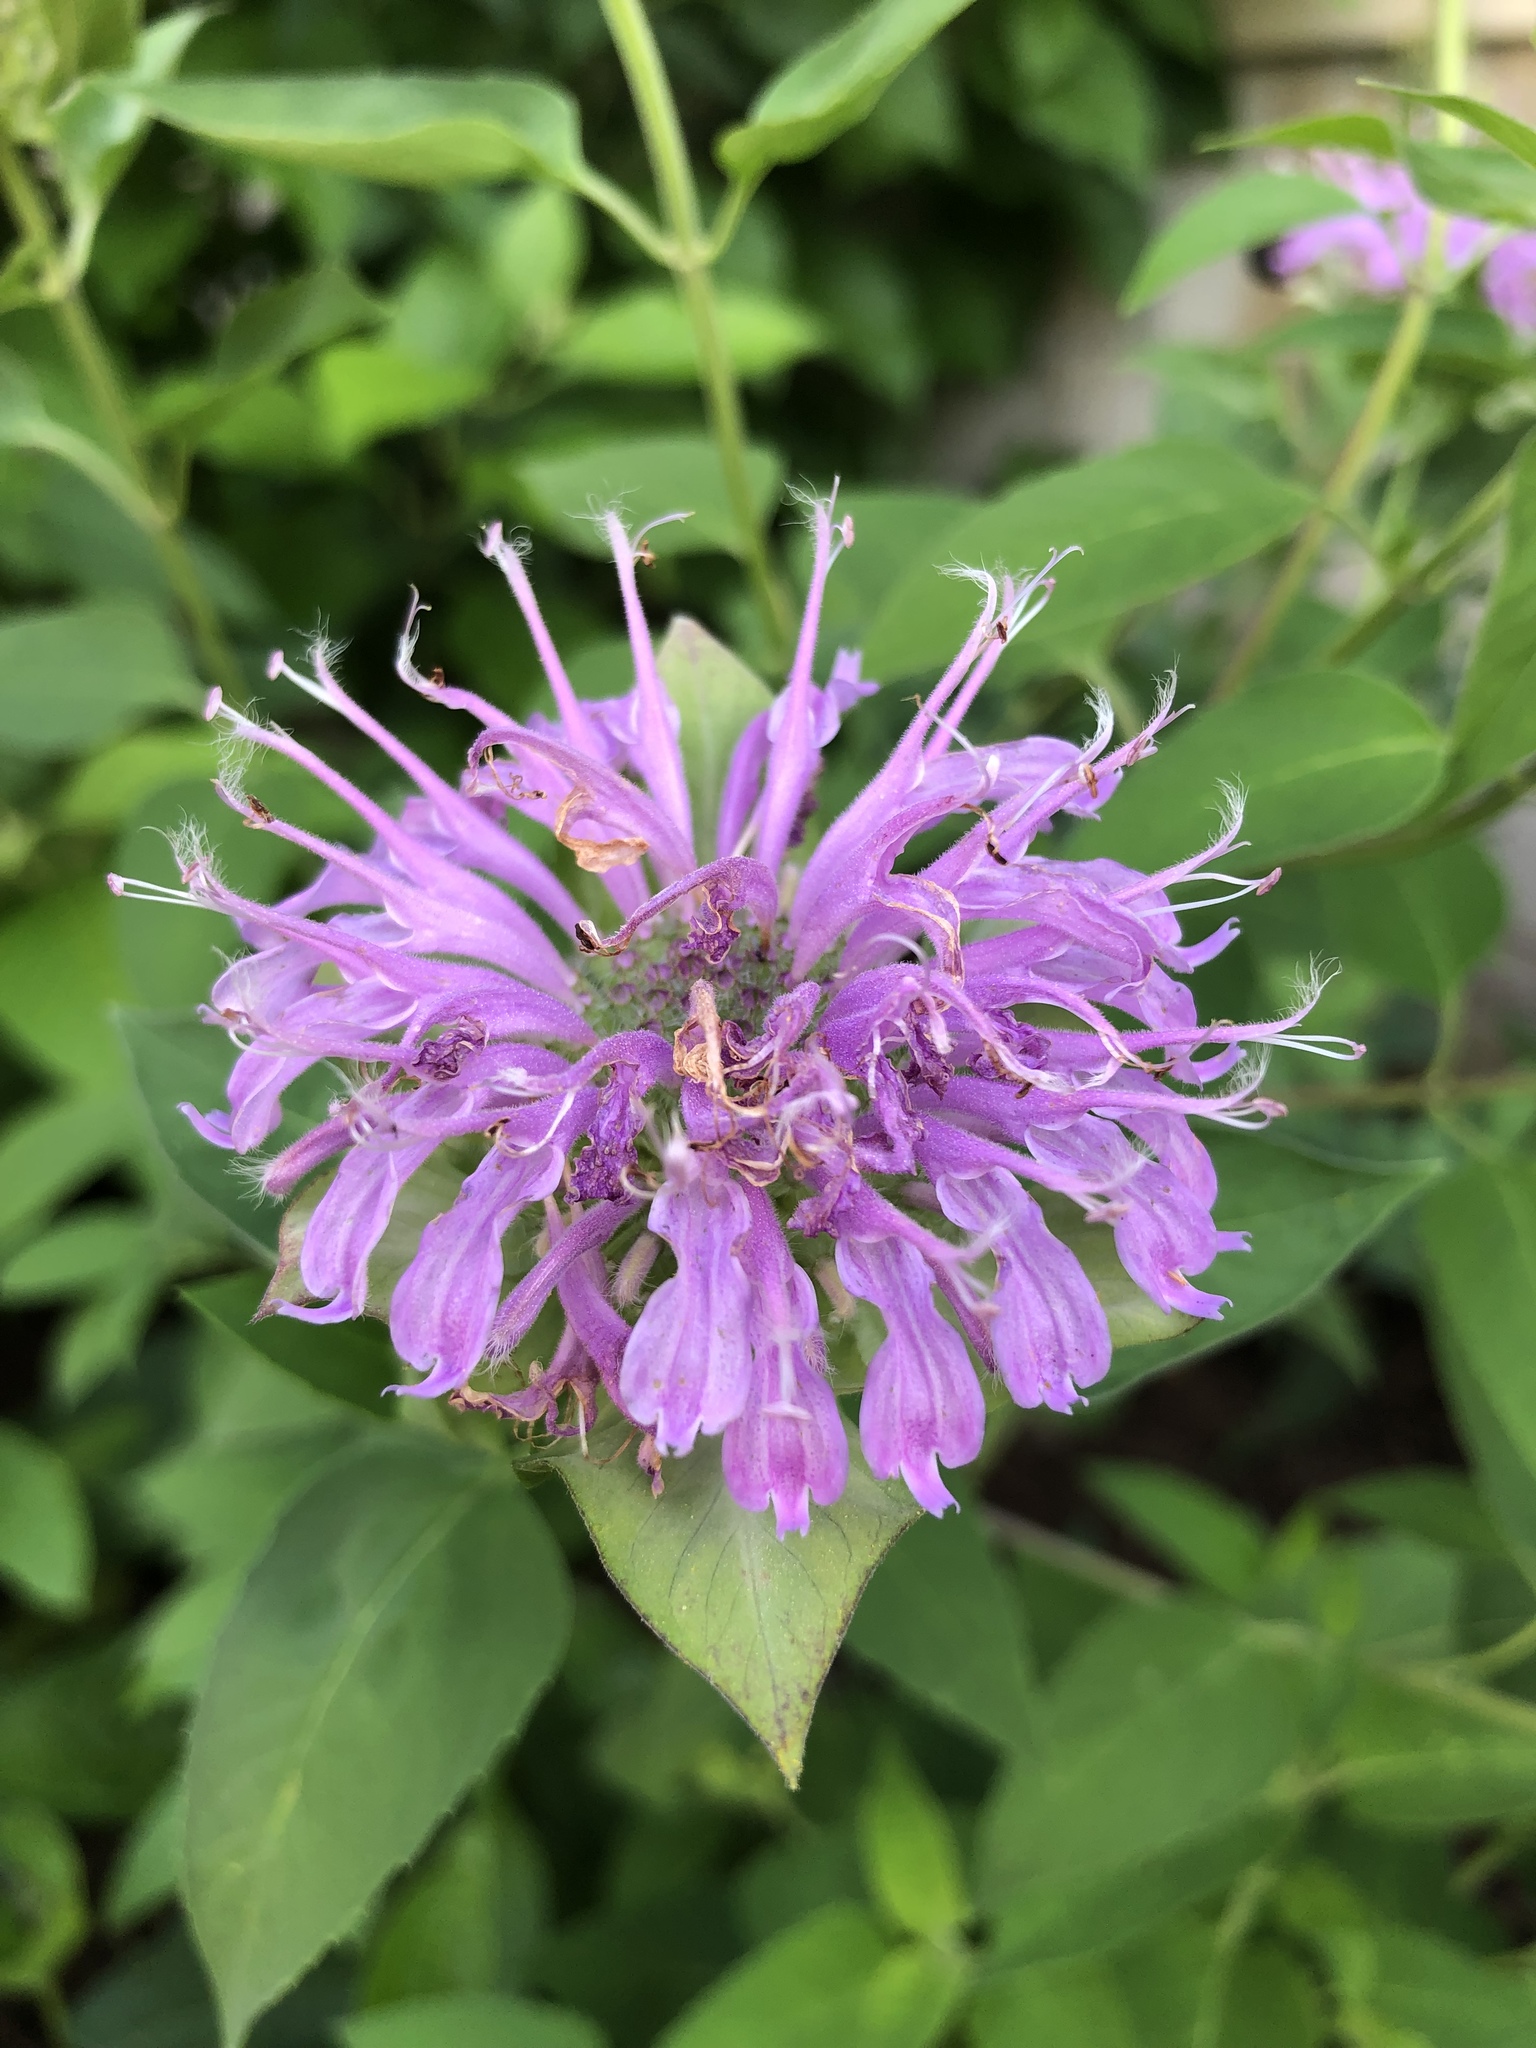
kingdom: Plantae
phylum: Tracheophyta
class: Magnoliopsida
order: Lamiales
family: Lamiaceae
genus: Monarda
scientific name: Monarda fistulosa
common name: Purple beebalm
